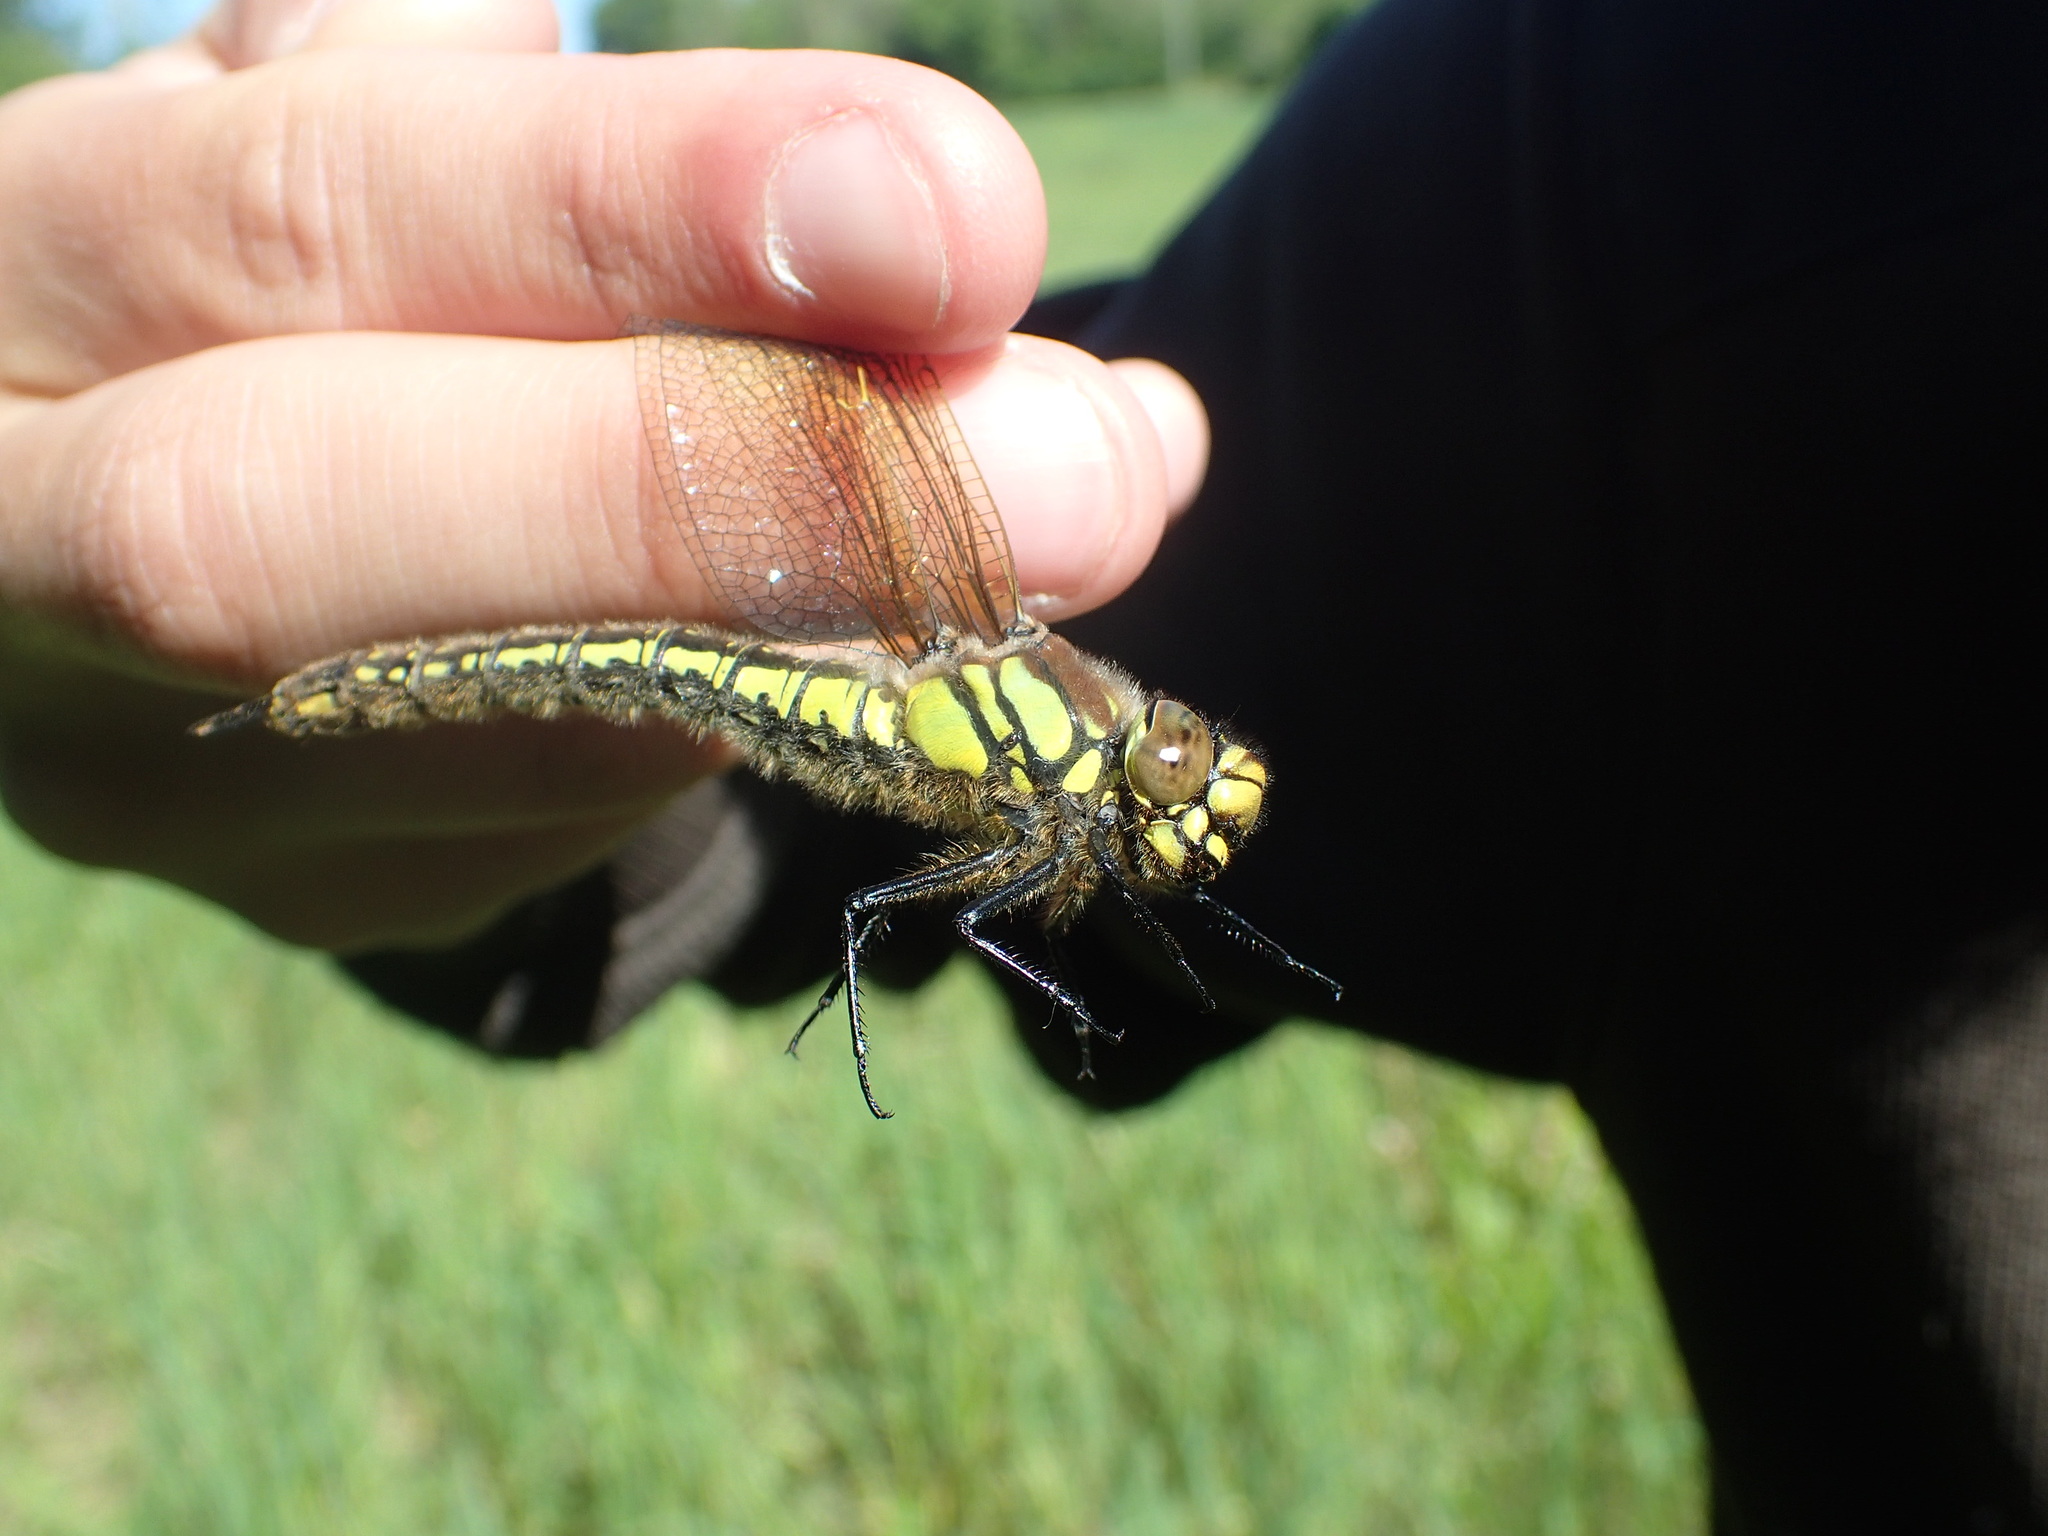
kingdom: Animalia
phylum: Arthropoda
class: Insecta
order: Odonata
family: Aeshnidae
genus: Brachytron
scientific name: Brachytron pratense
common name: Hairy hawker
